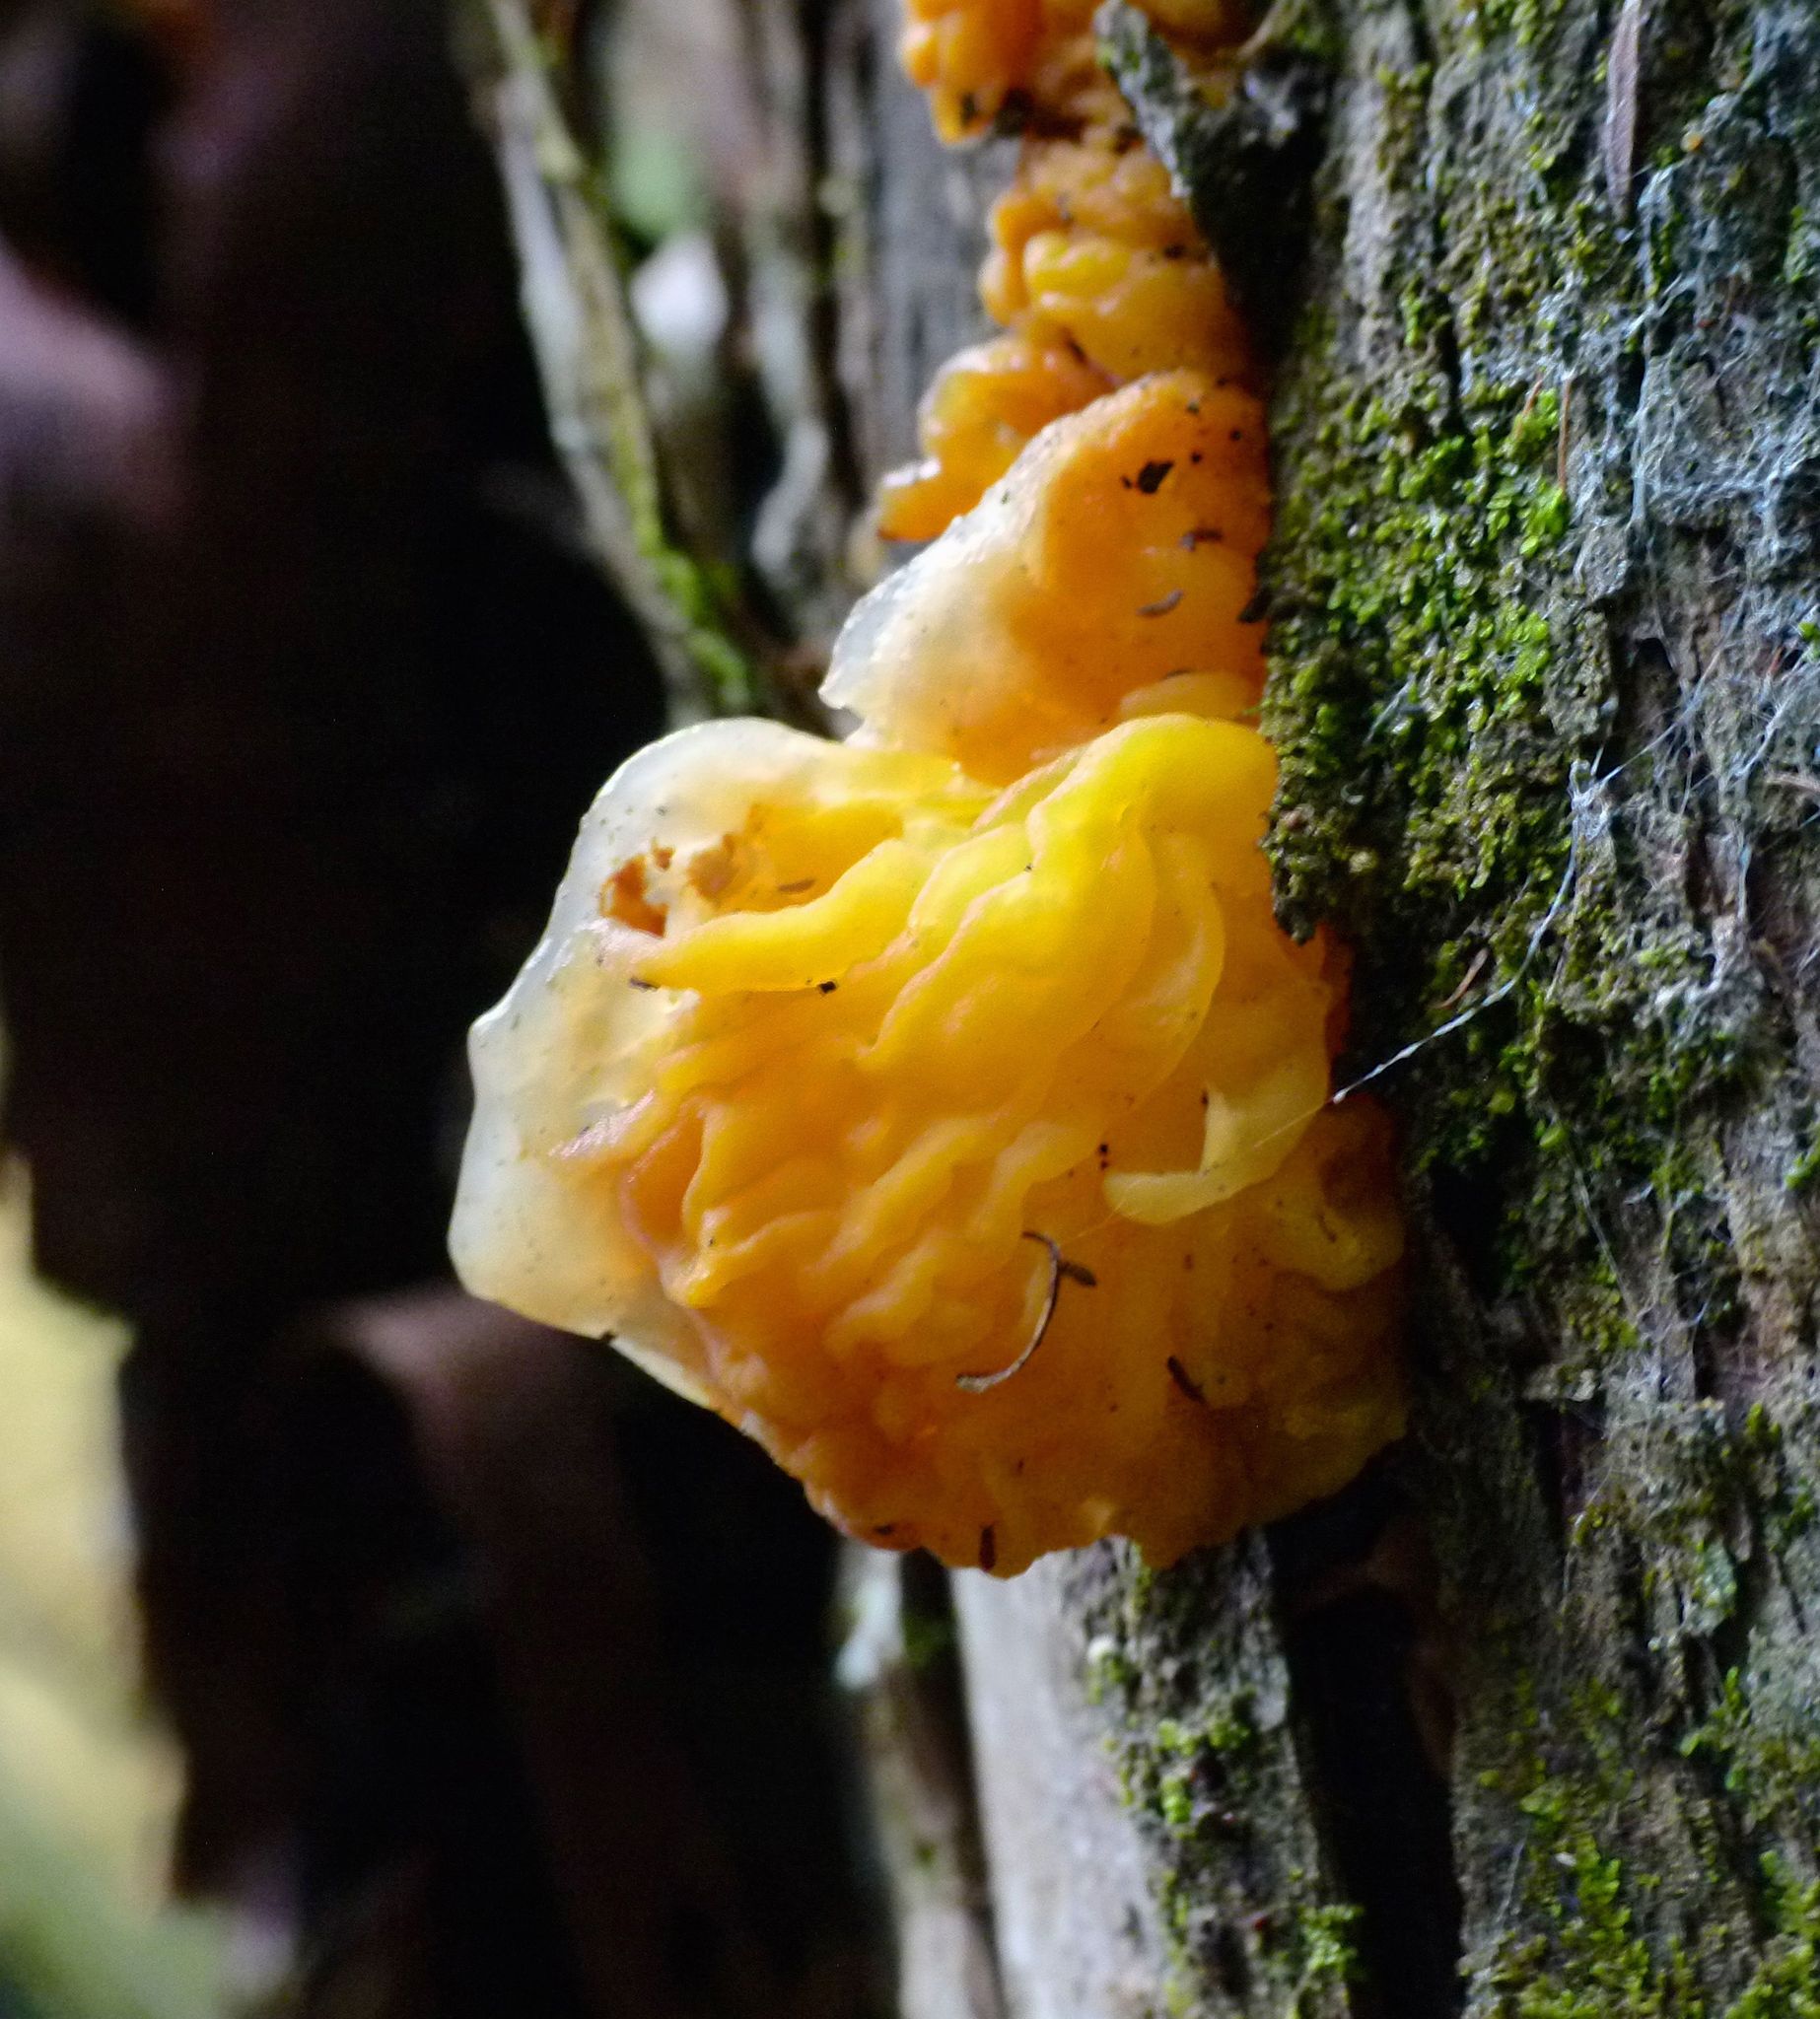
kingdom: Fungi
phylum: Basidiomycota
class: Tremellomycetes
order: Tremellales
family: Tremellaceae
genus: Tremella
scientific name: Tremella mesenterica
